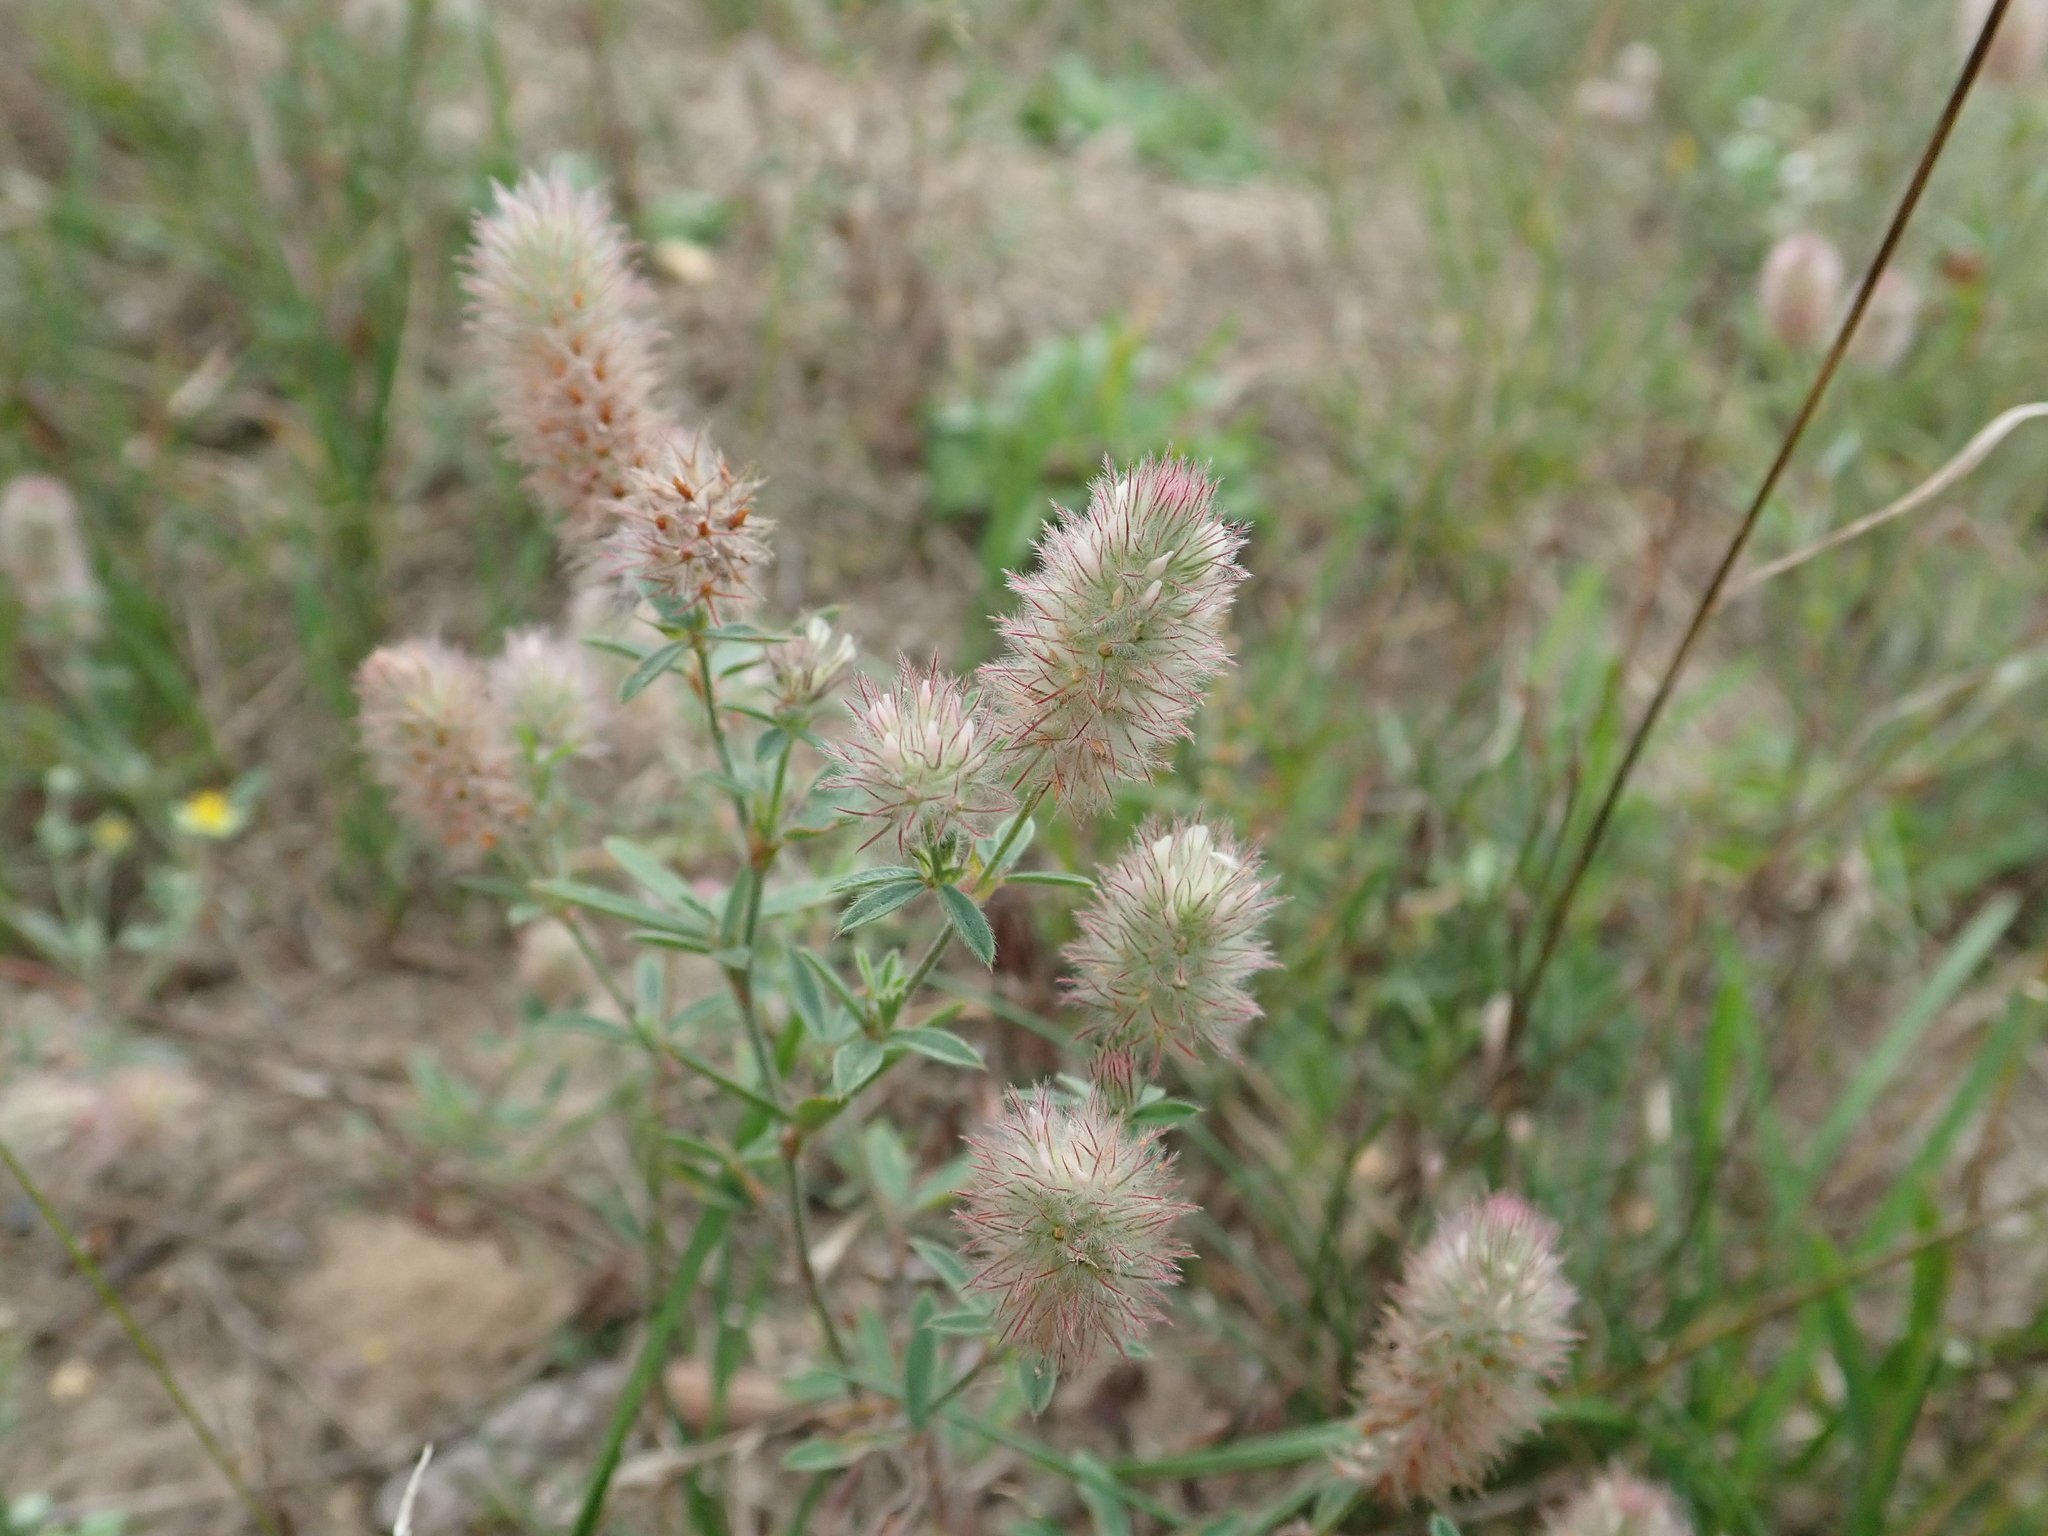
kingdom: Plantae
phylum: Tracheophyta
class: Magnoliopsida
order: Fabales
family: Fabaceae
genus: Trifolium
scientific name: Trifolium arvense
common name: Hare's-foot clover
